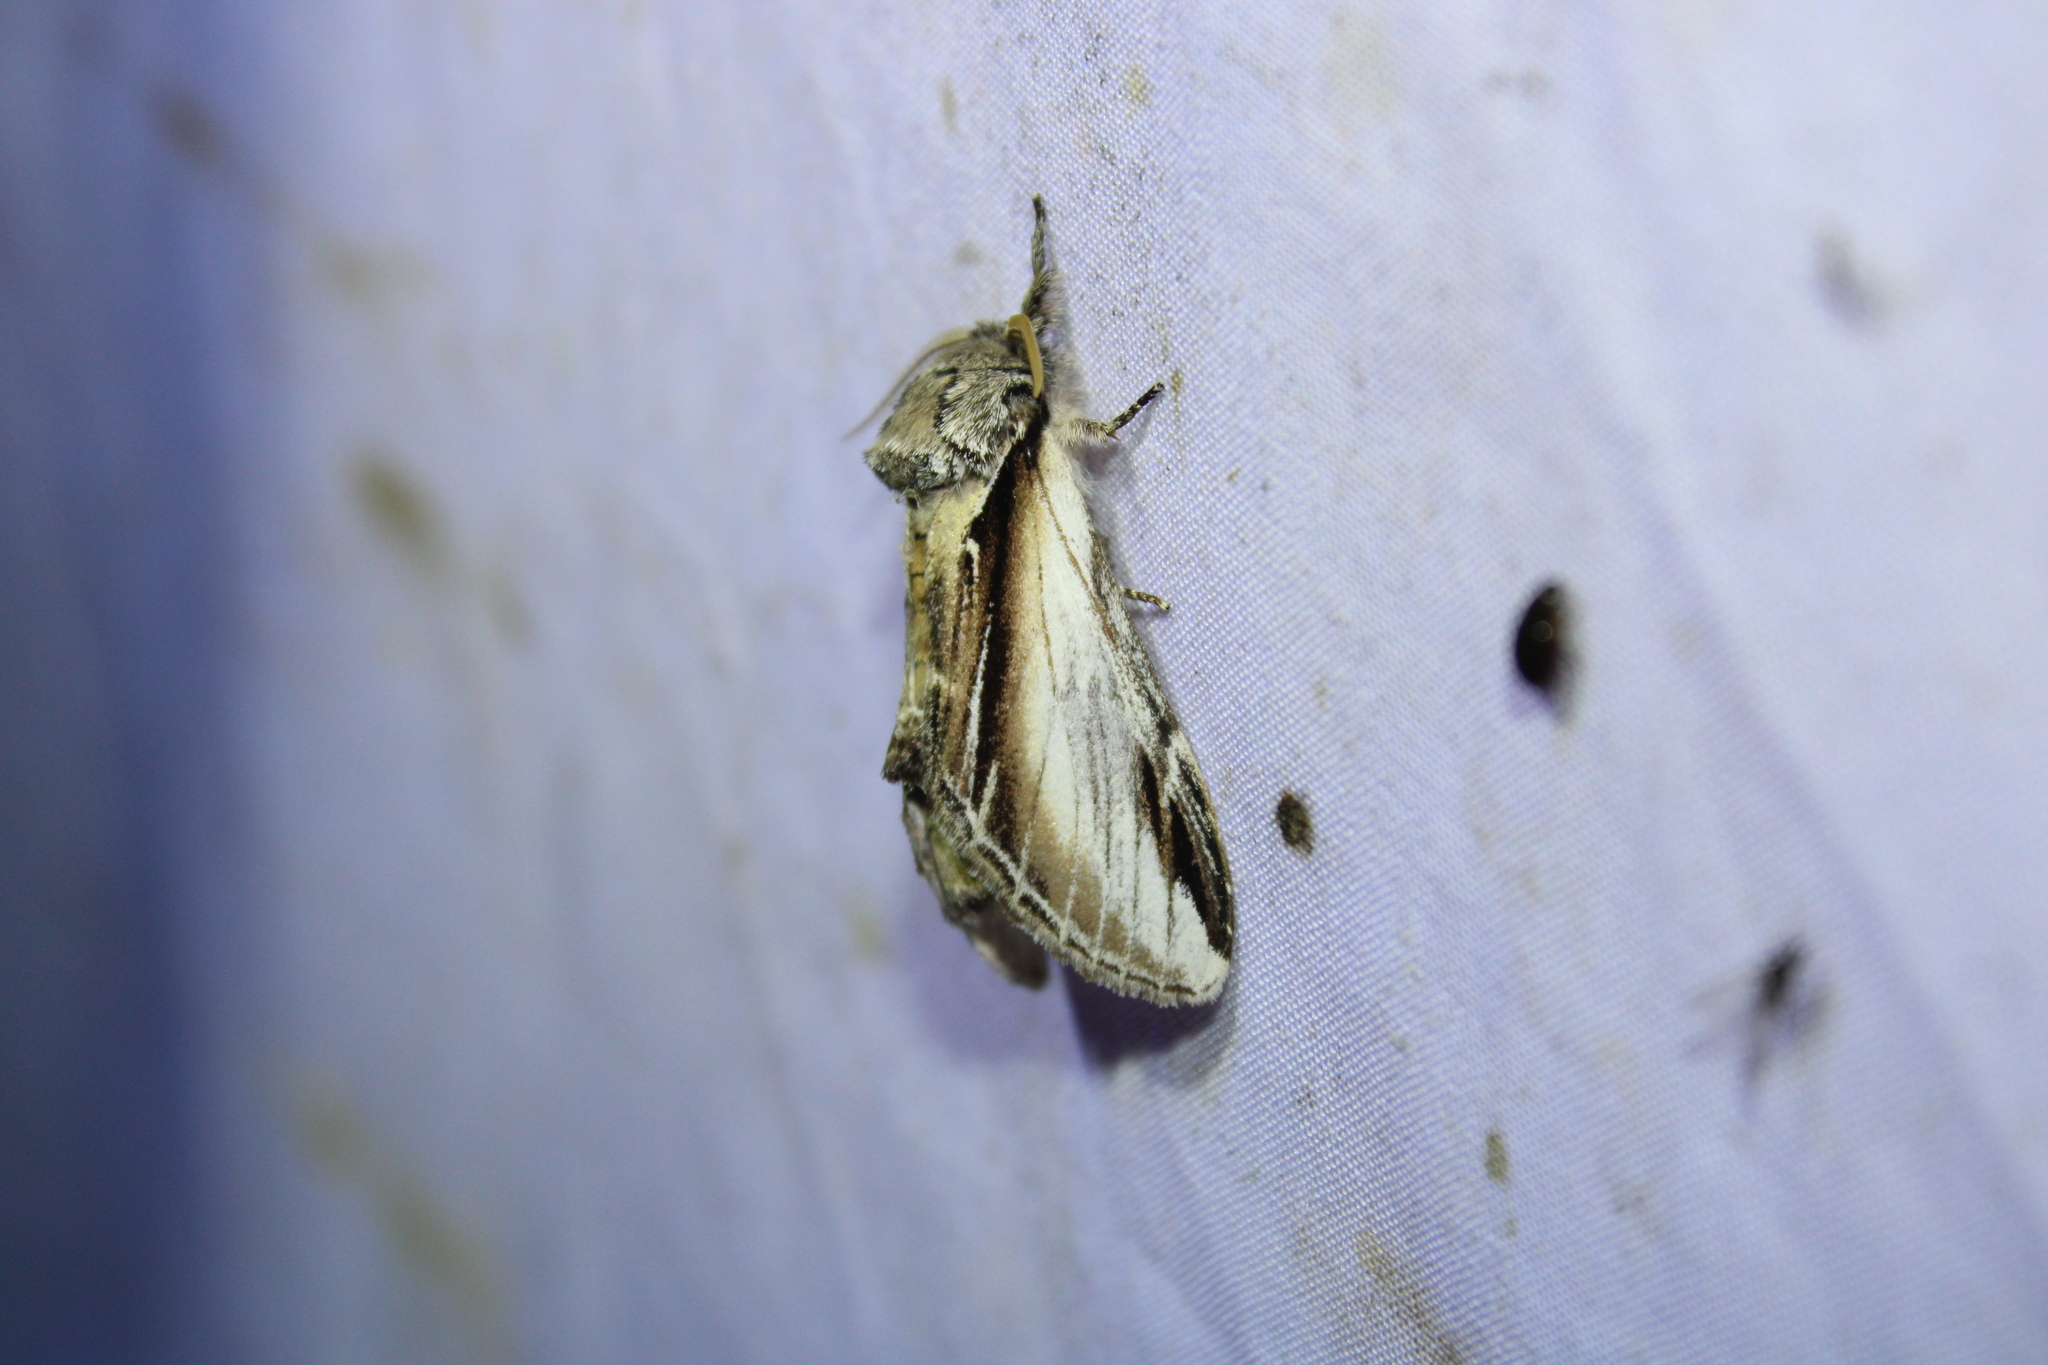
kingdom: Animalia
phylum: Arthropoda
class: Insecta
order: Lepidoptera
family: Notodontidae
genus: Pheosia
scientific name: Pheosia rimosa
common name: Black-rimmed prominent
